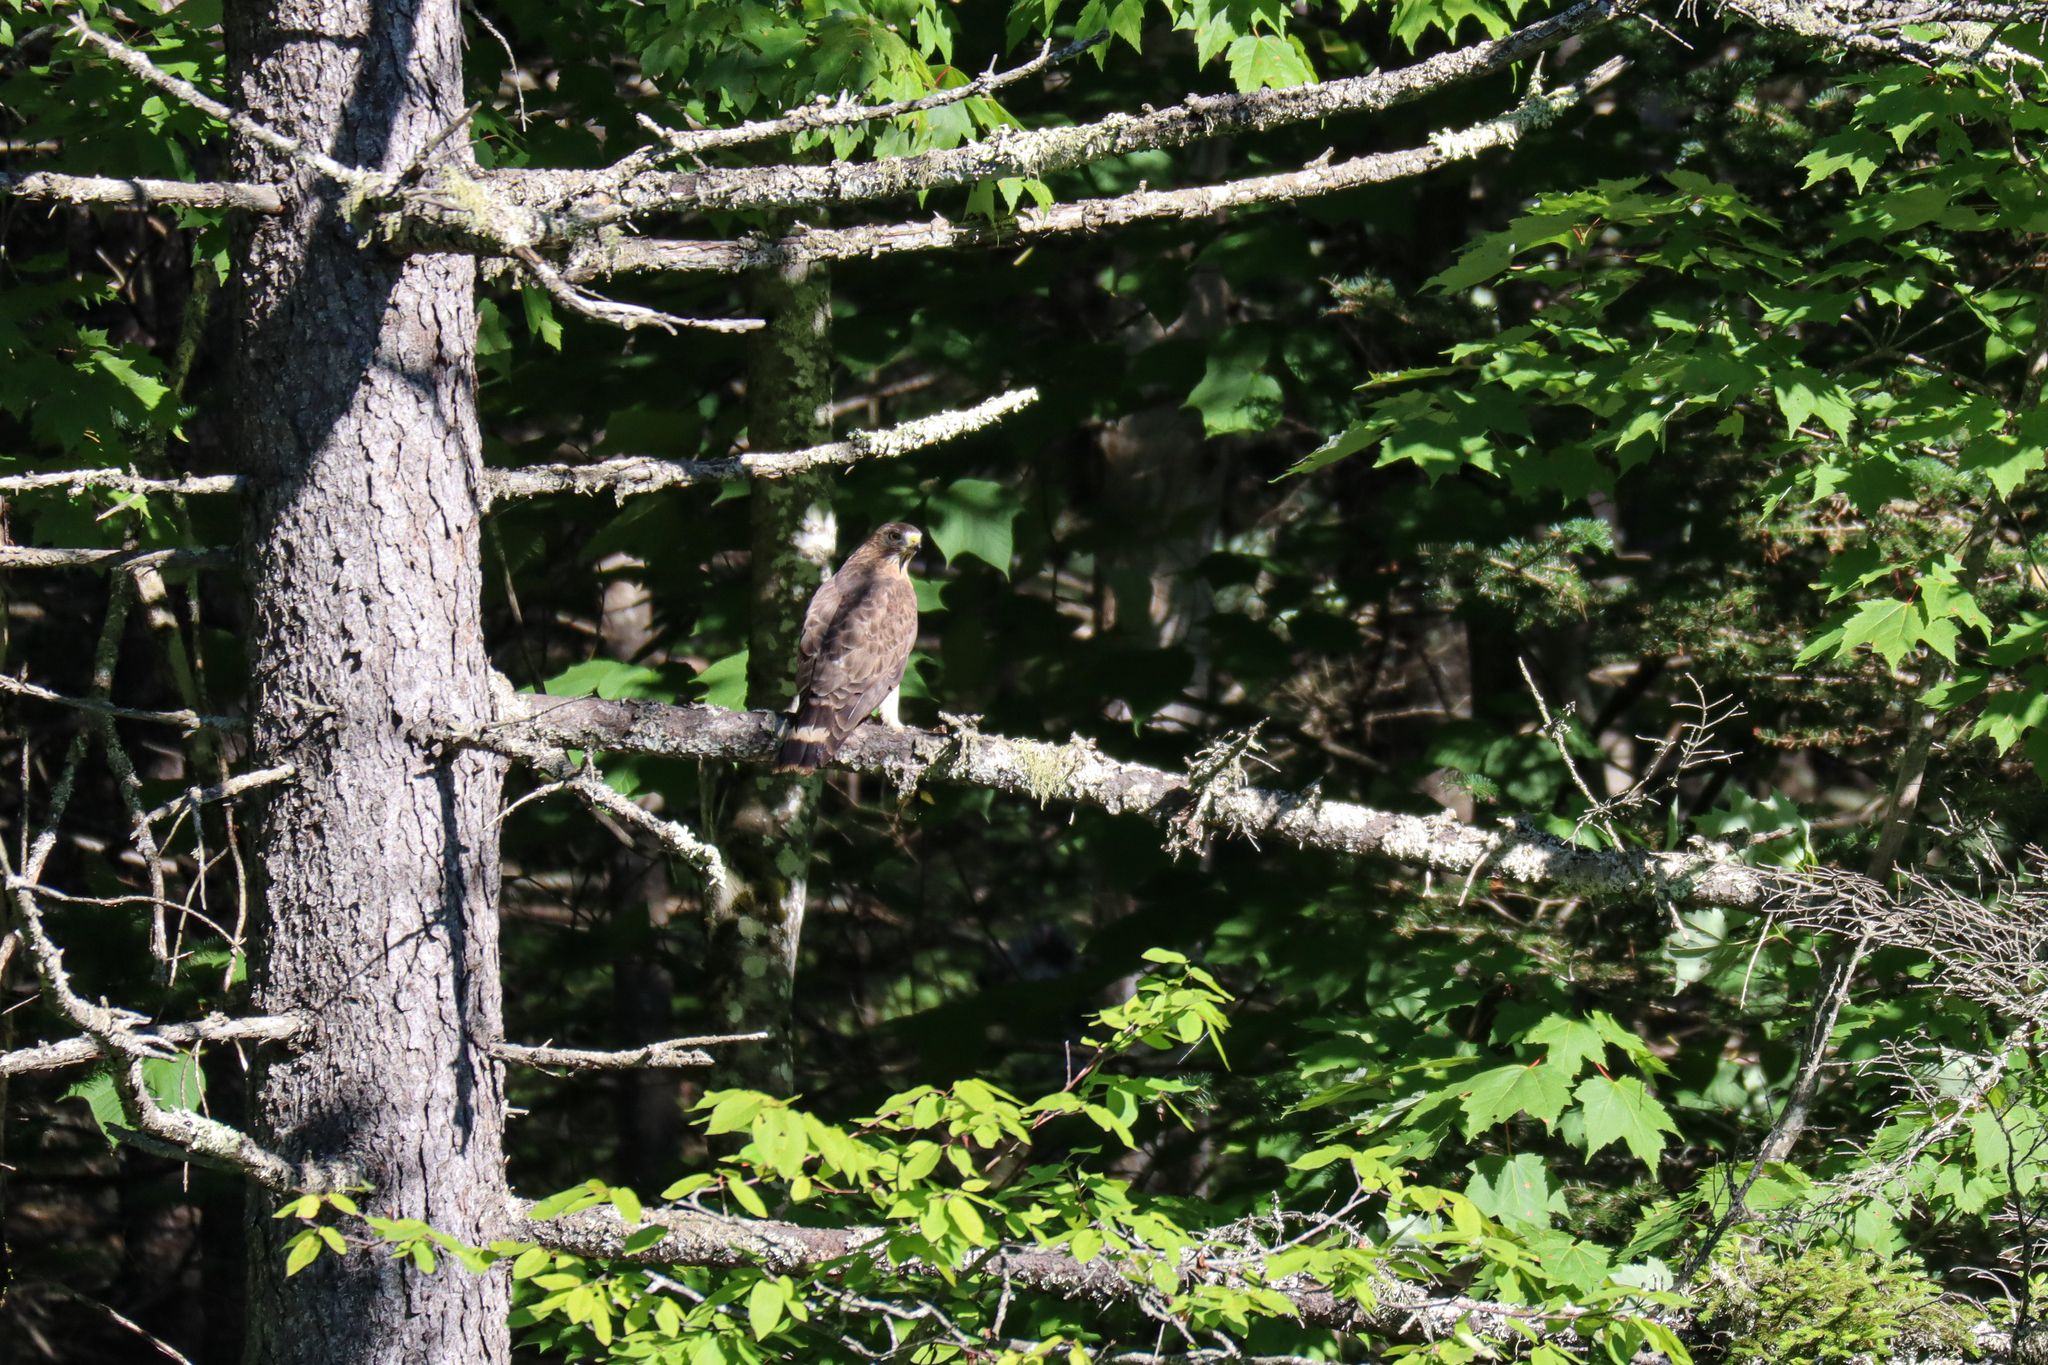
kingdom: Animalia
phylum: Chordata
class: Aves
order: Accipitriformes
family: Accipitridae
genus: Buteo
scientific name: Buteo platypterus
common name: Broad-winged hawk
